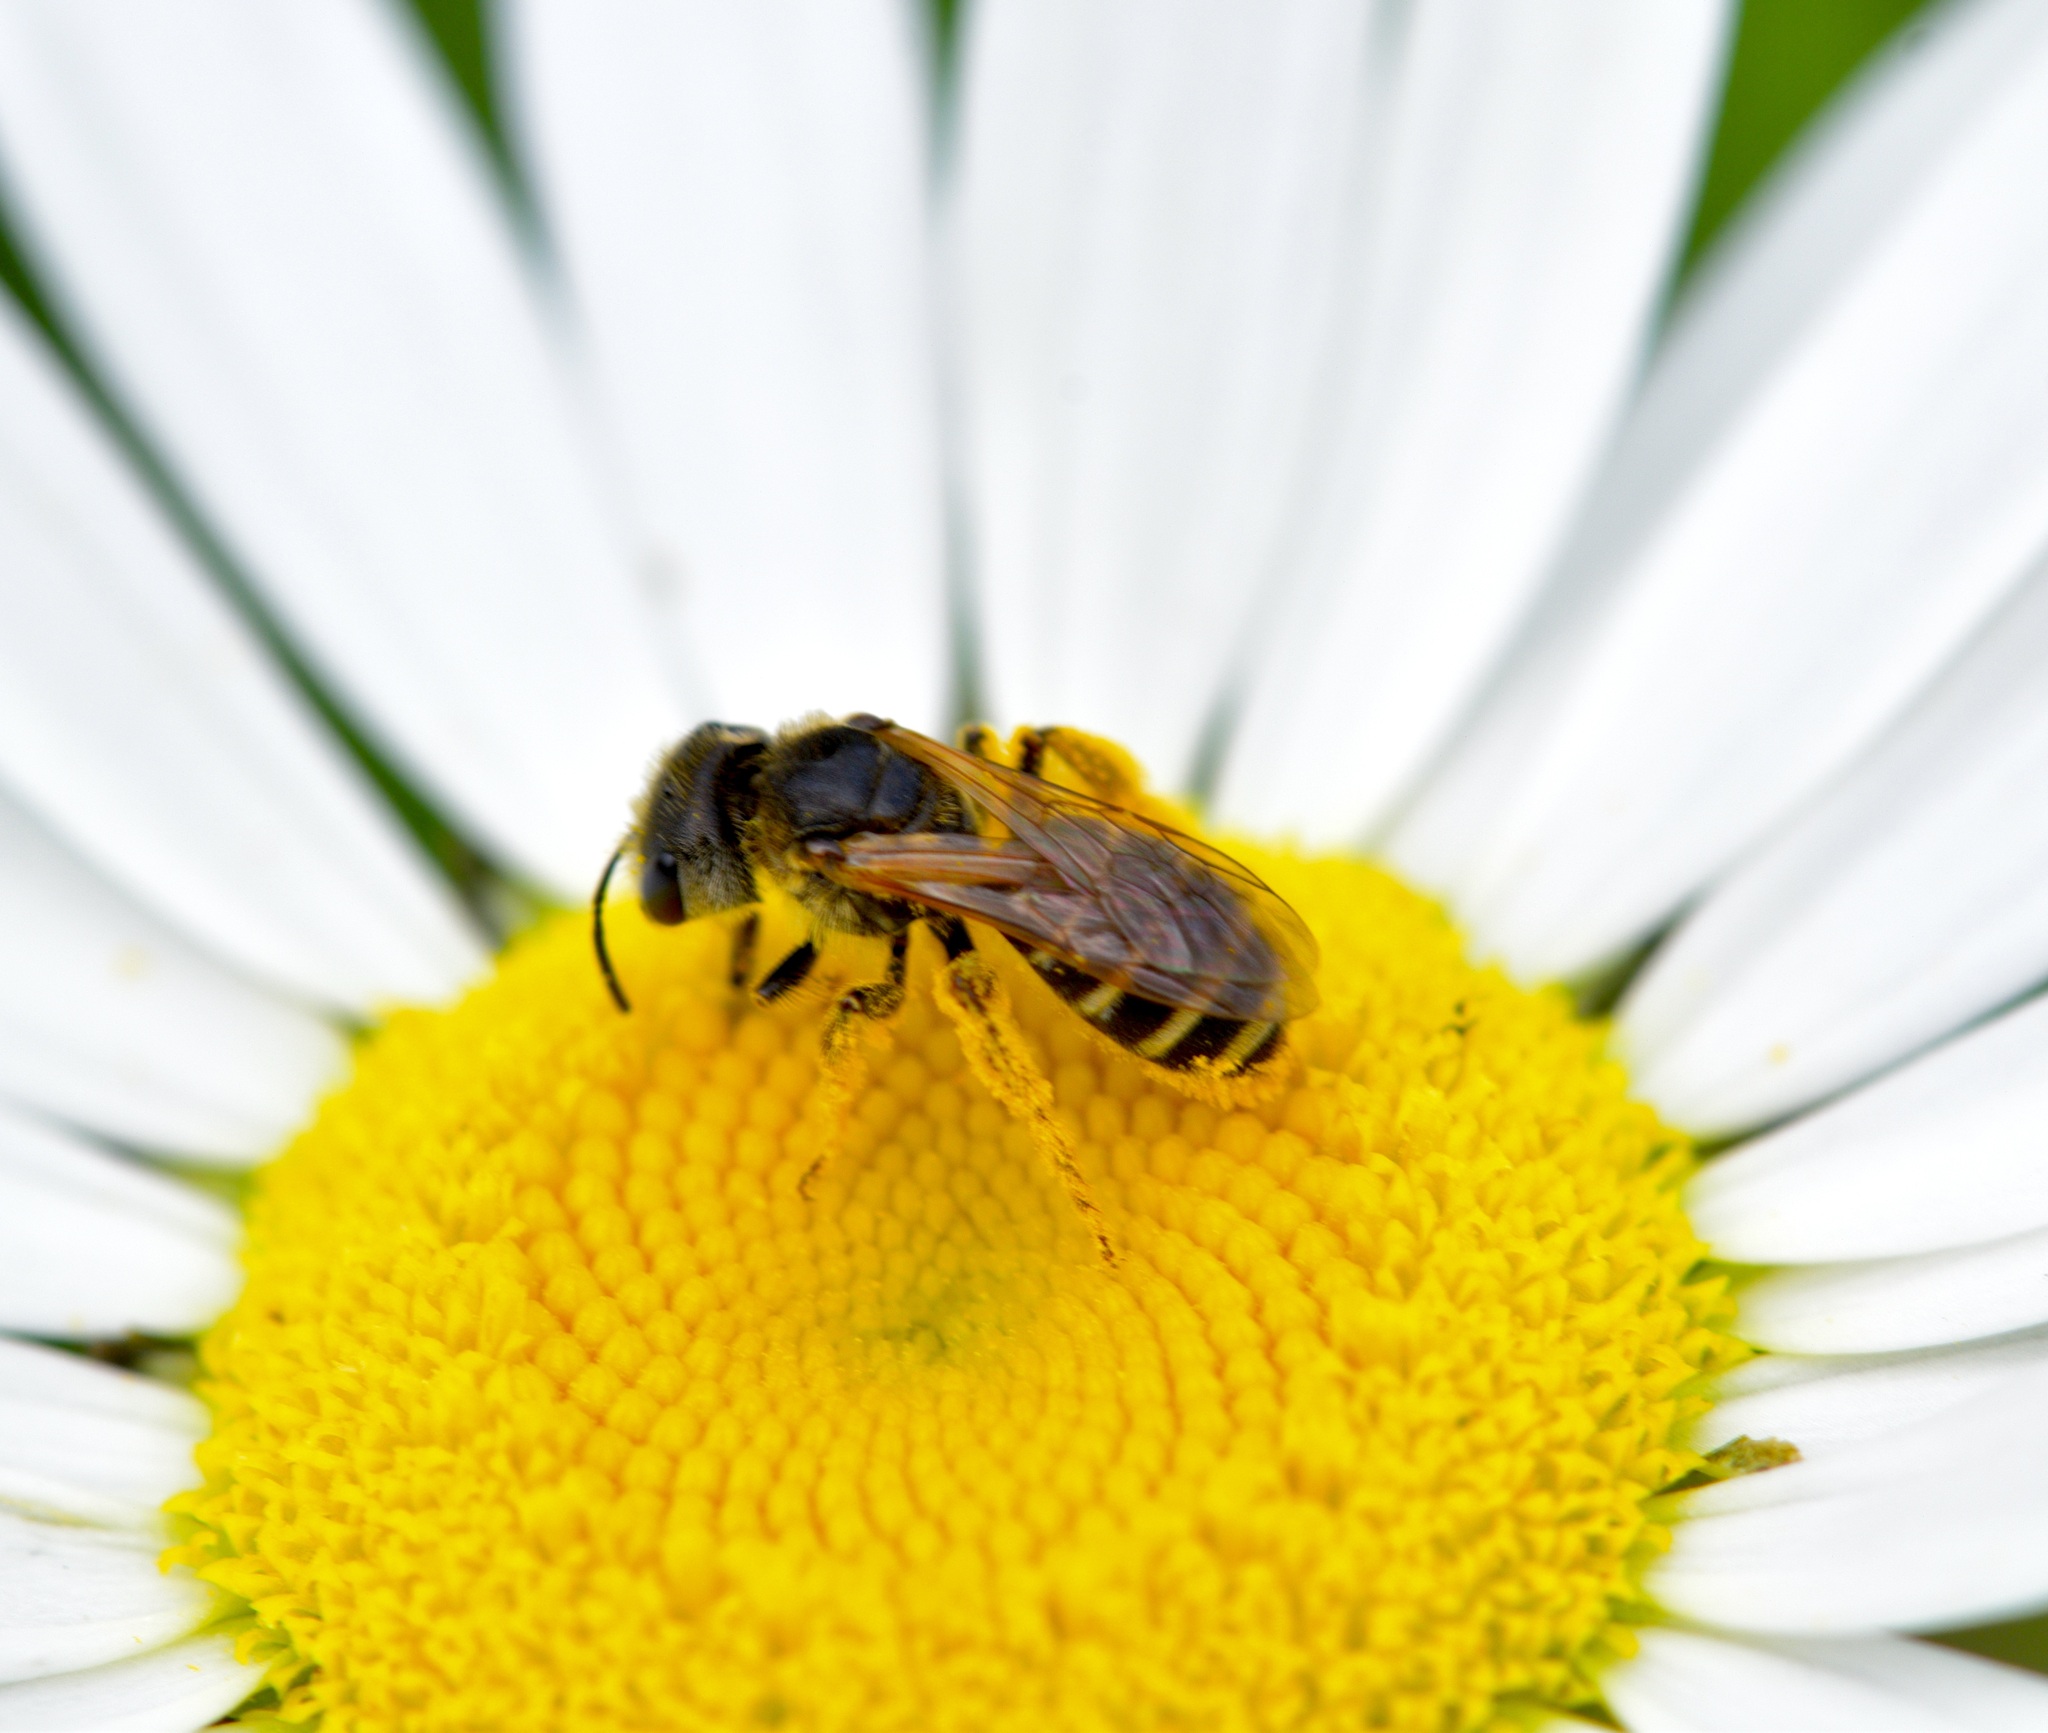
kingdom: Animalia
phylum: Arthropoda
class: Insecta
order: Hymenoptera
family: Halictidae
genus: Halictus
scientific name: Halictus ligatus
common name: Ligated furrow bee
